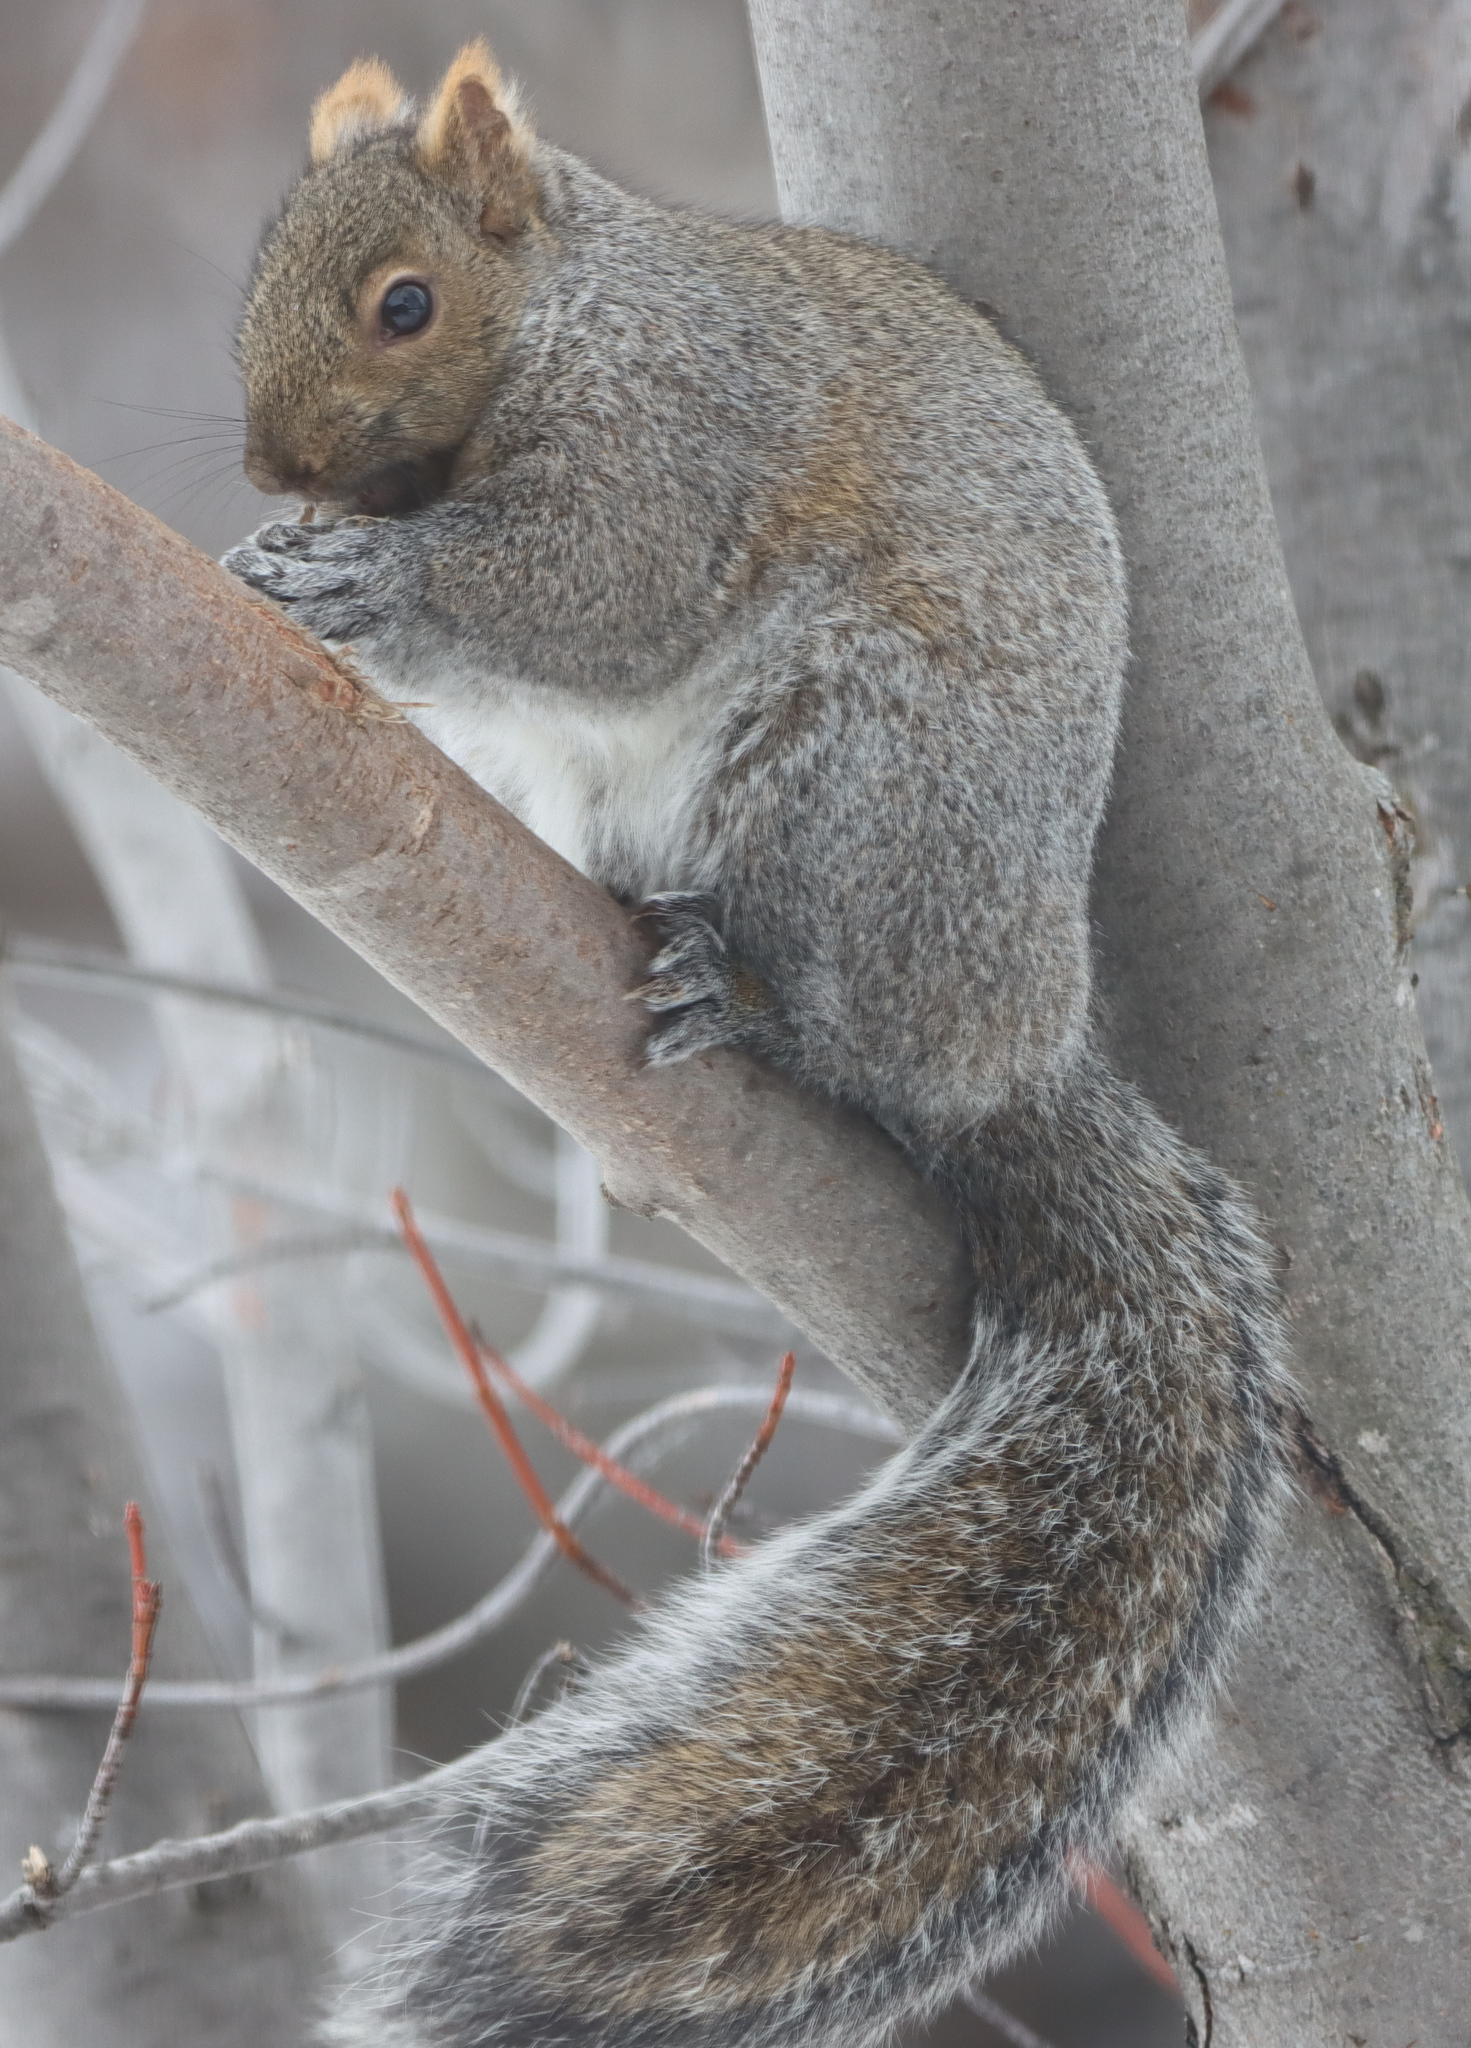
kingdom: Animalia
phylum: Chordata
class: Mammalia
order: Rodentia
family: Sciuridae
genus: Sciurus
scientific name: Sciurus carolinensis
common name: Eastern gray squirrel
